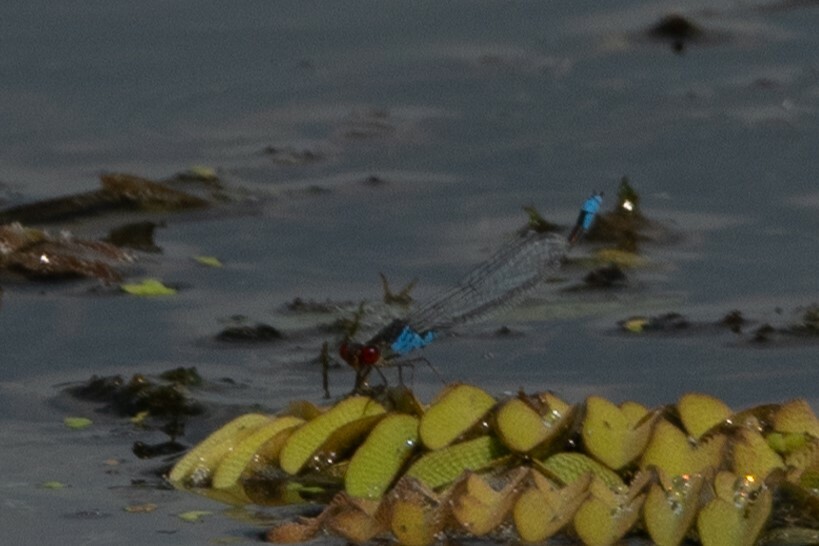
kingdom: Animalia
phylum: Arthropoda
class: Insecta
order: Odonata
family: Coenagrionidae
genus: Erythromma
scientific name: Erythromma viridulum
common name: Small red-eyed damselfly
